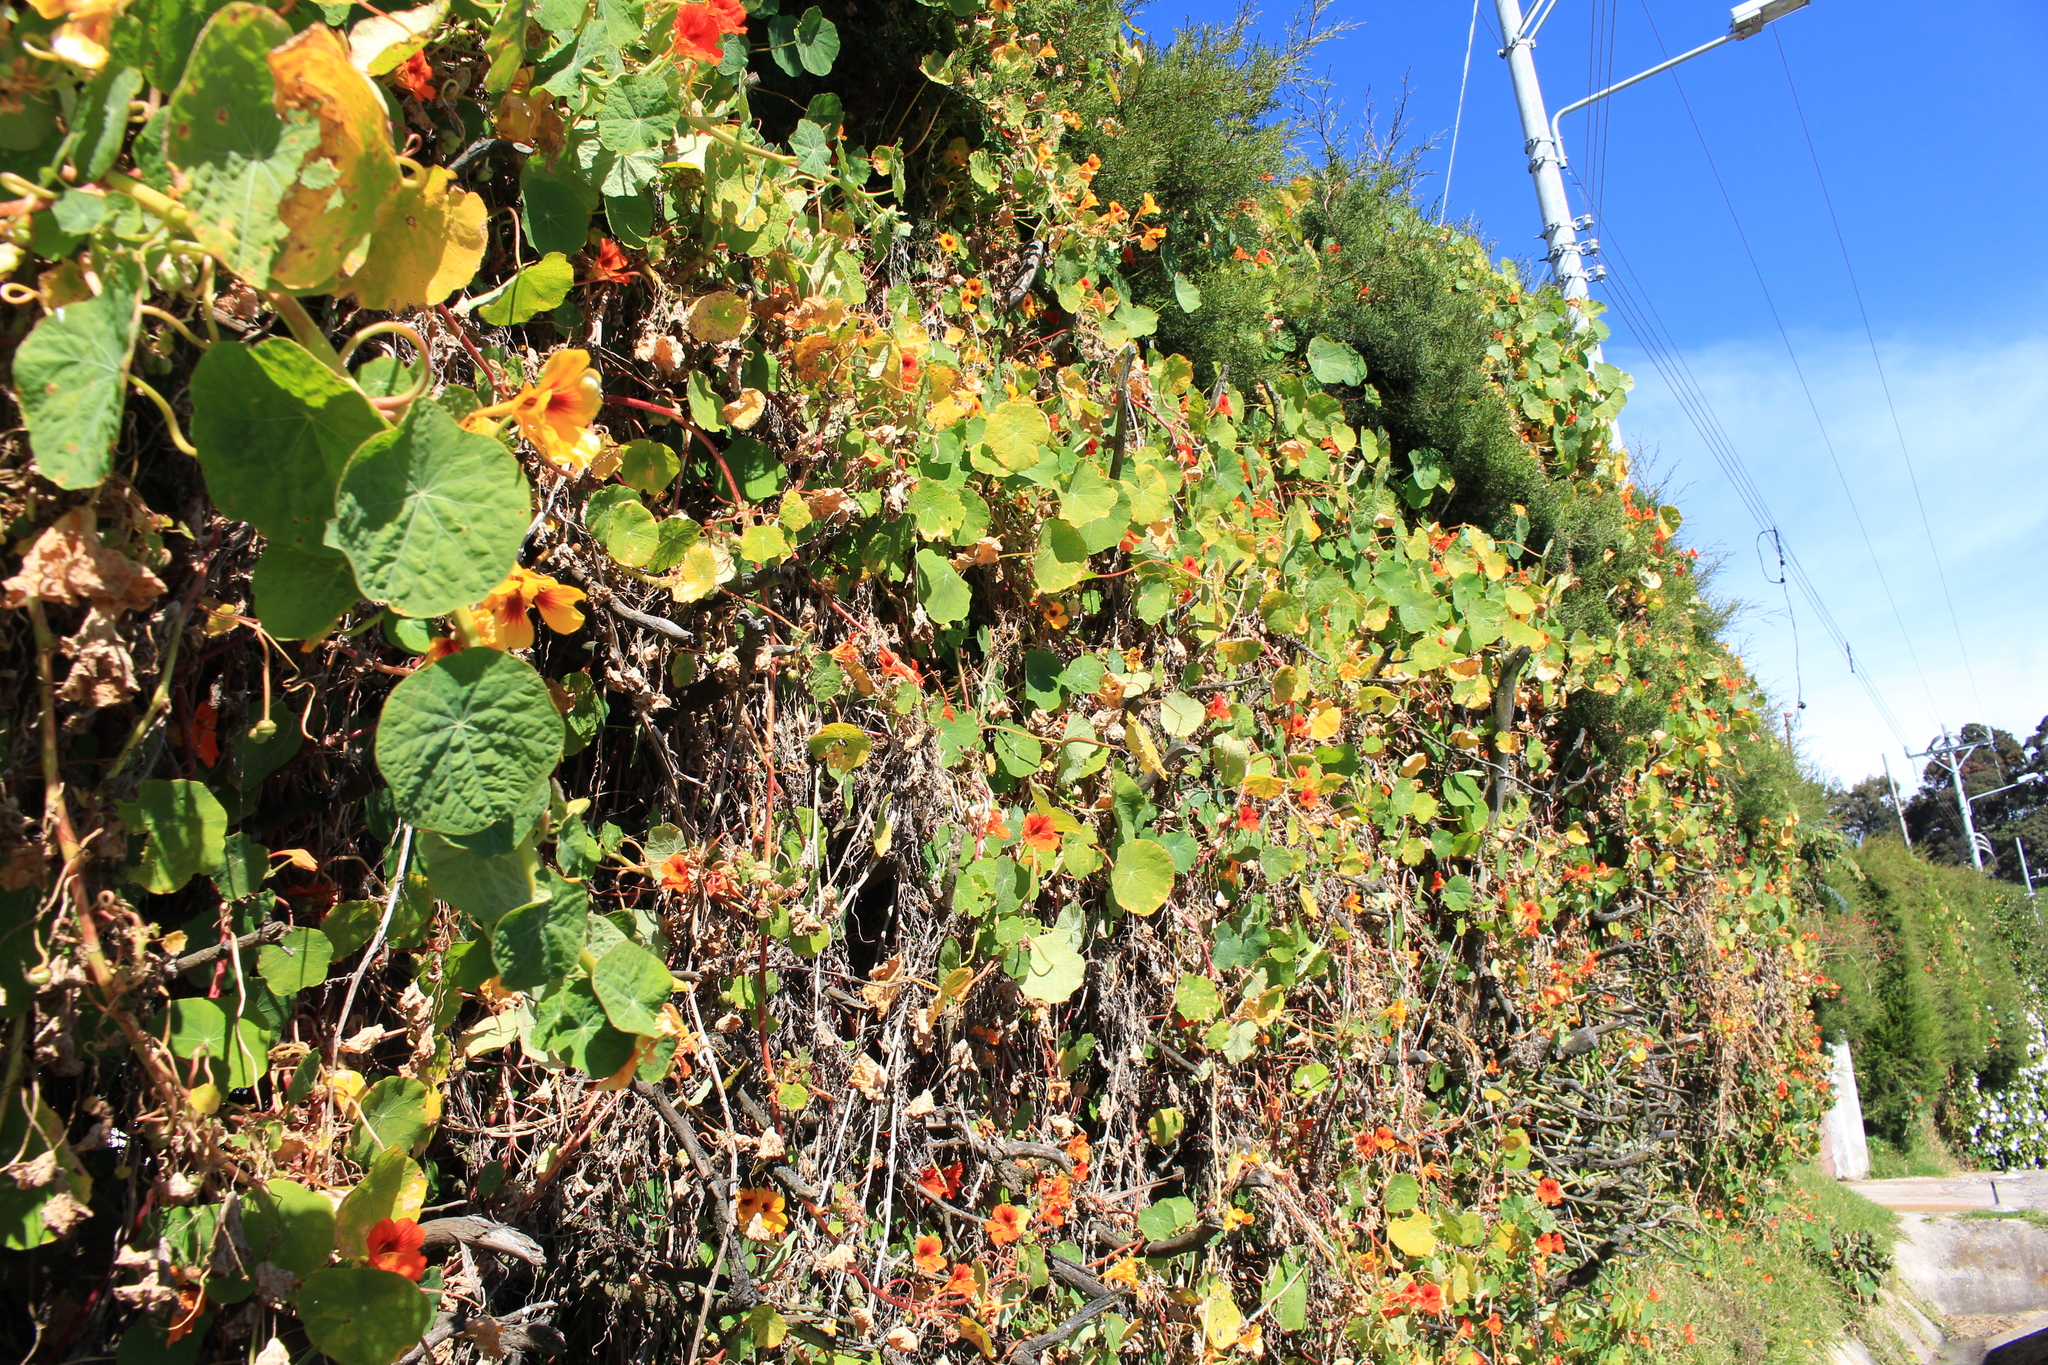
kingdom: Plantae
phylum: Tracheophyta
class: Magnoliopsida
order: Brassicales
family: Tropaeolaceae
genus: Tropaeolum
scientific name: Tropaeolum majus
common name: Nasturtium
